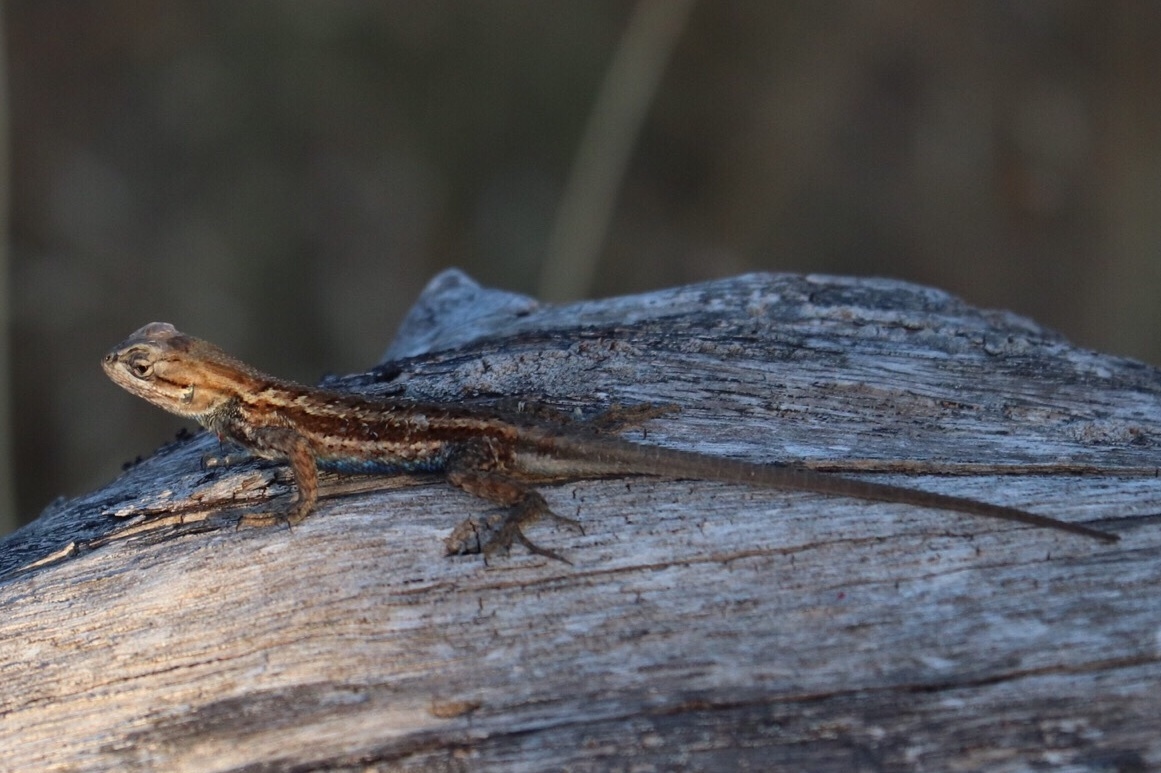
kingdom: Animalia
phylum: Chordata
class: Squamata
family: Phrynosomatidae
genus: Sceloporus
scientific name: Sceloporus consobrinus
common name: Southern prairie lizard
